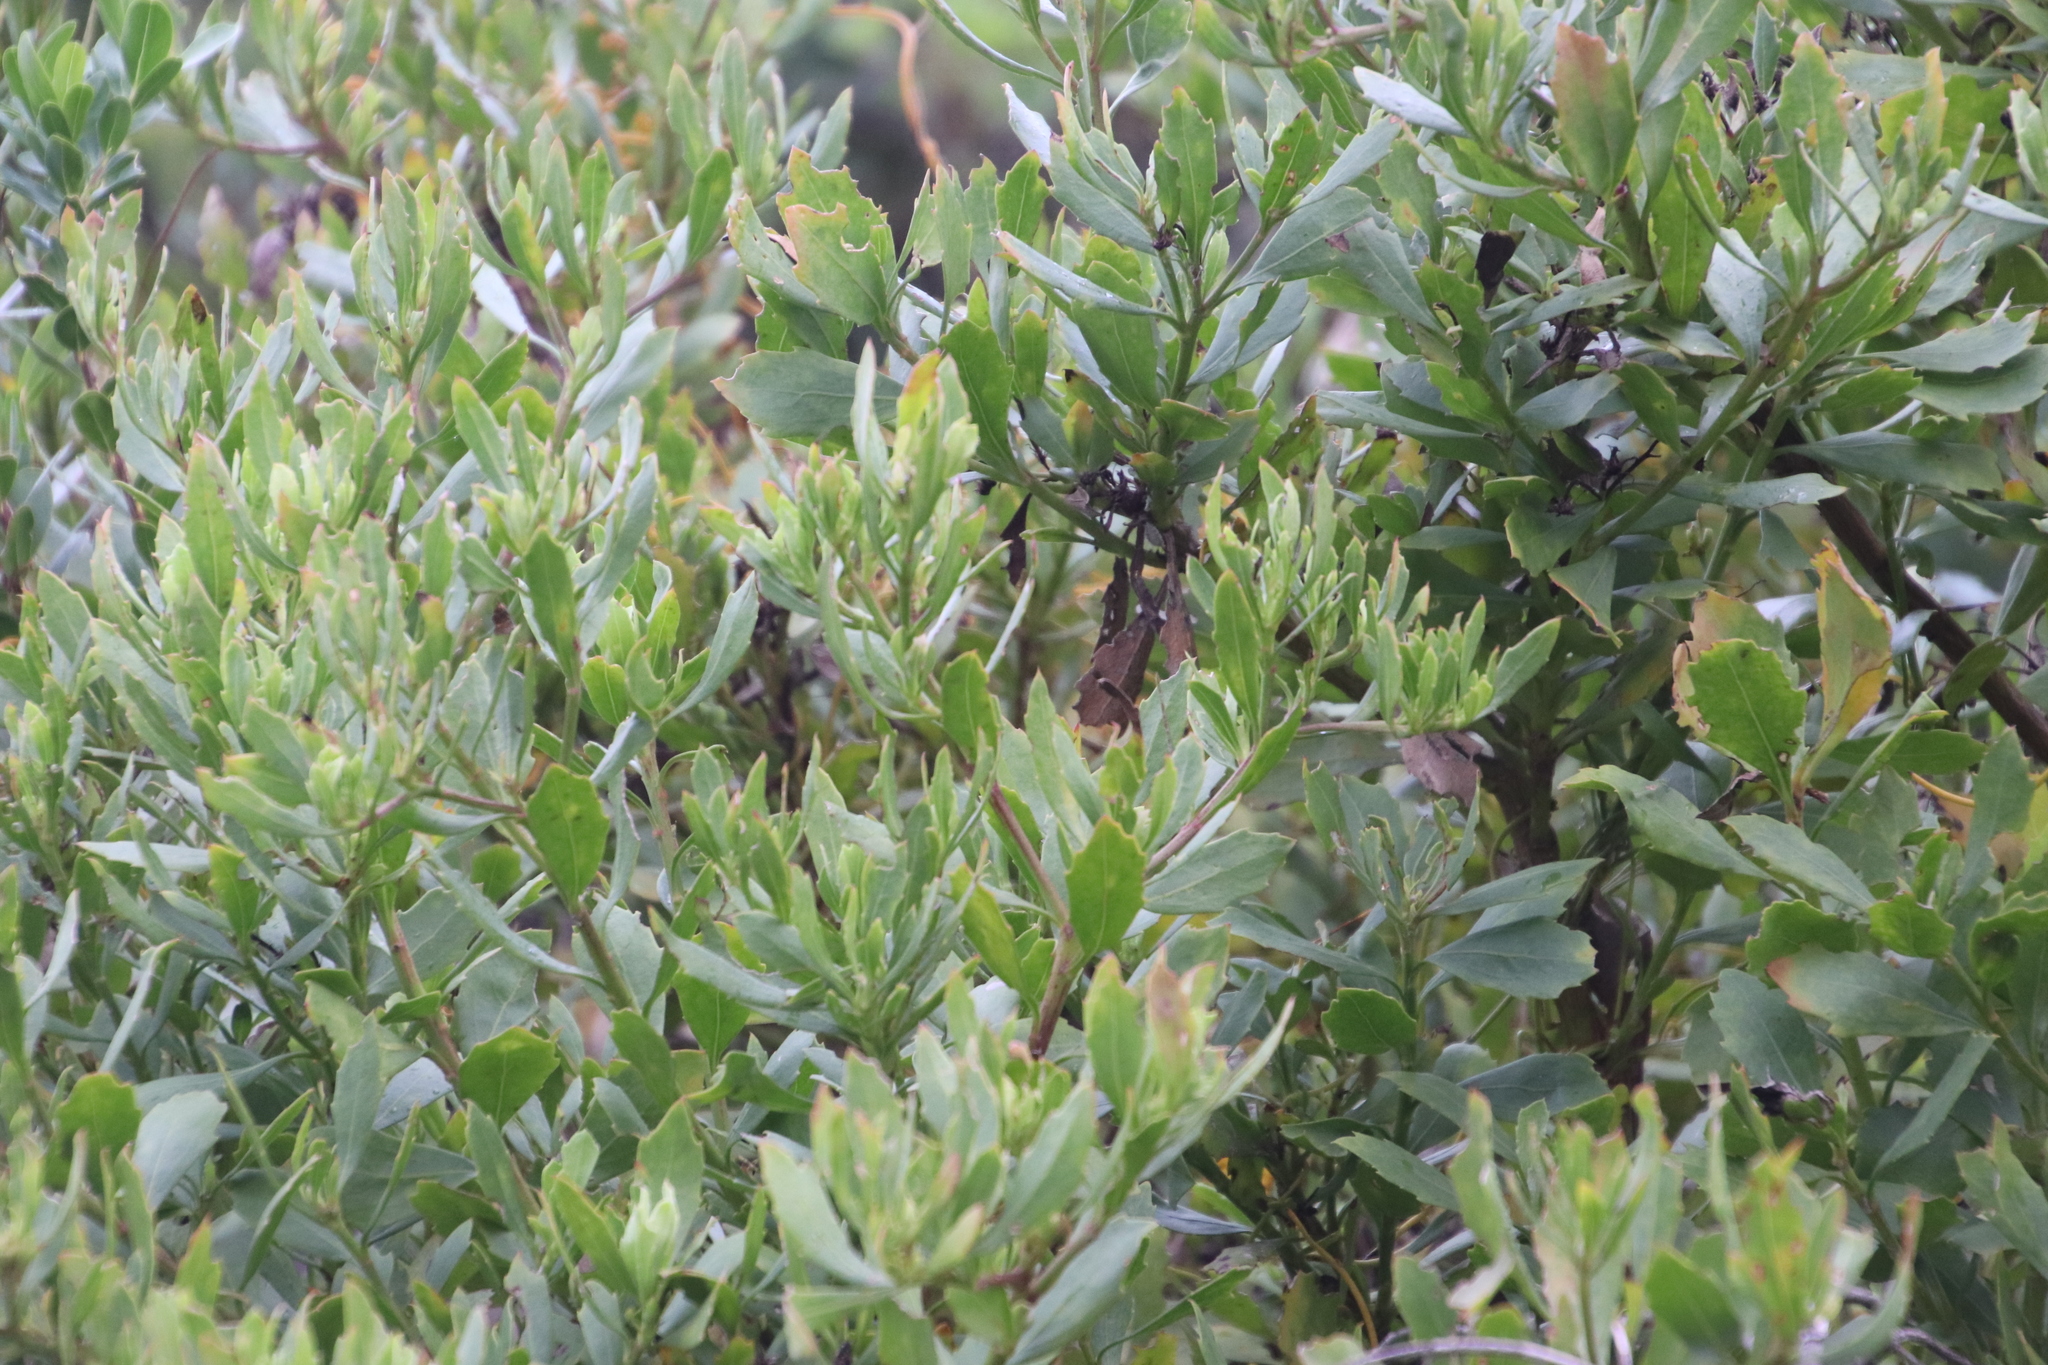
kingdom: Plantae
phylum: Tracheophyta
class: Magnoliopsida
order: Asterales
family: Asteraceae
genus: Osteospermum
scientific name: Osteospermum moniliferum
